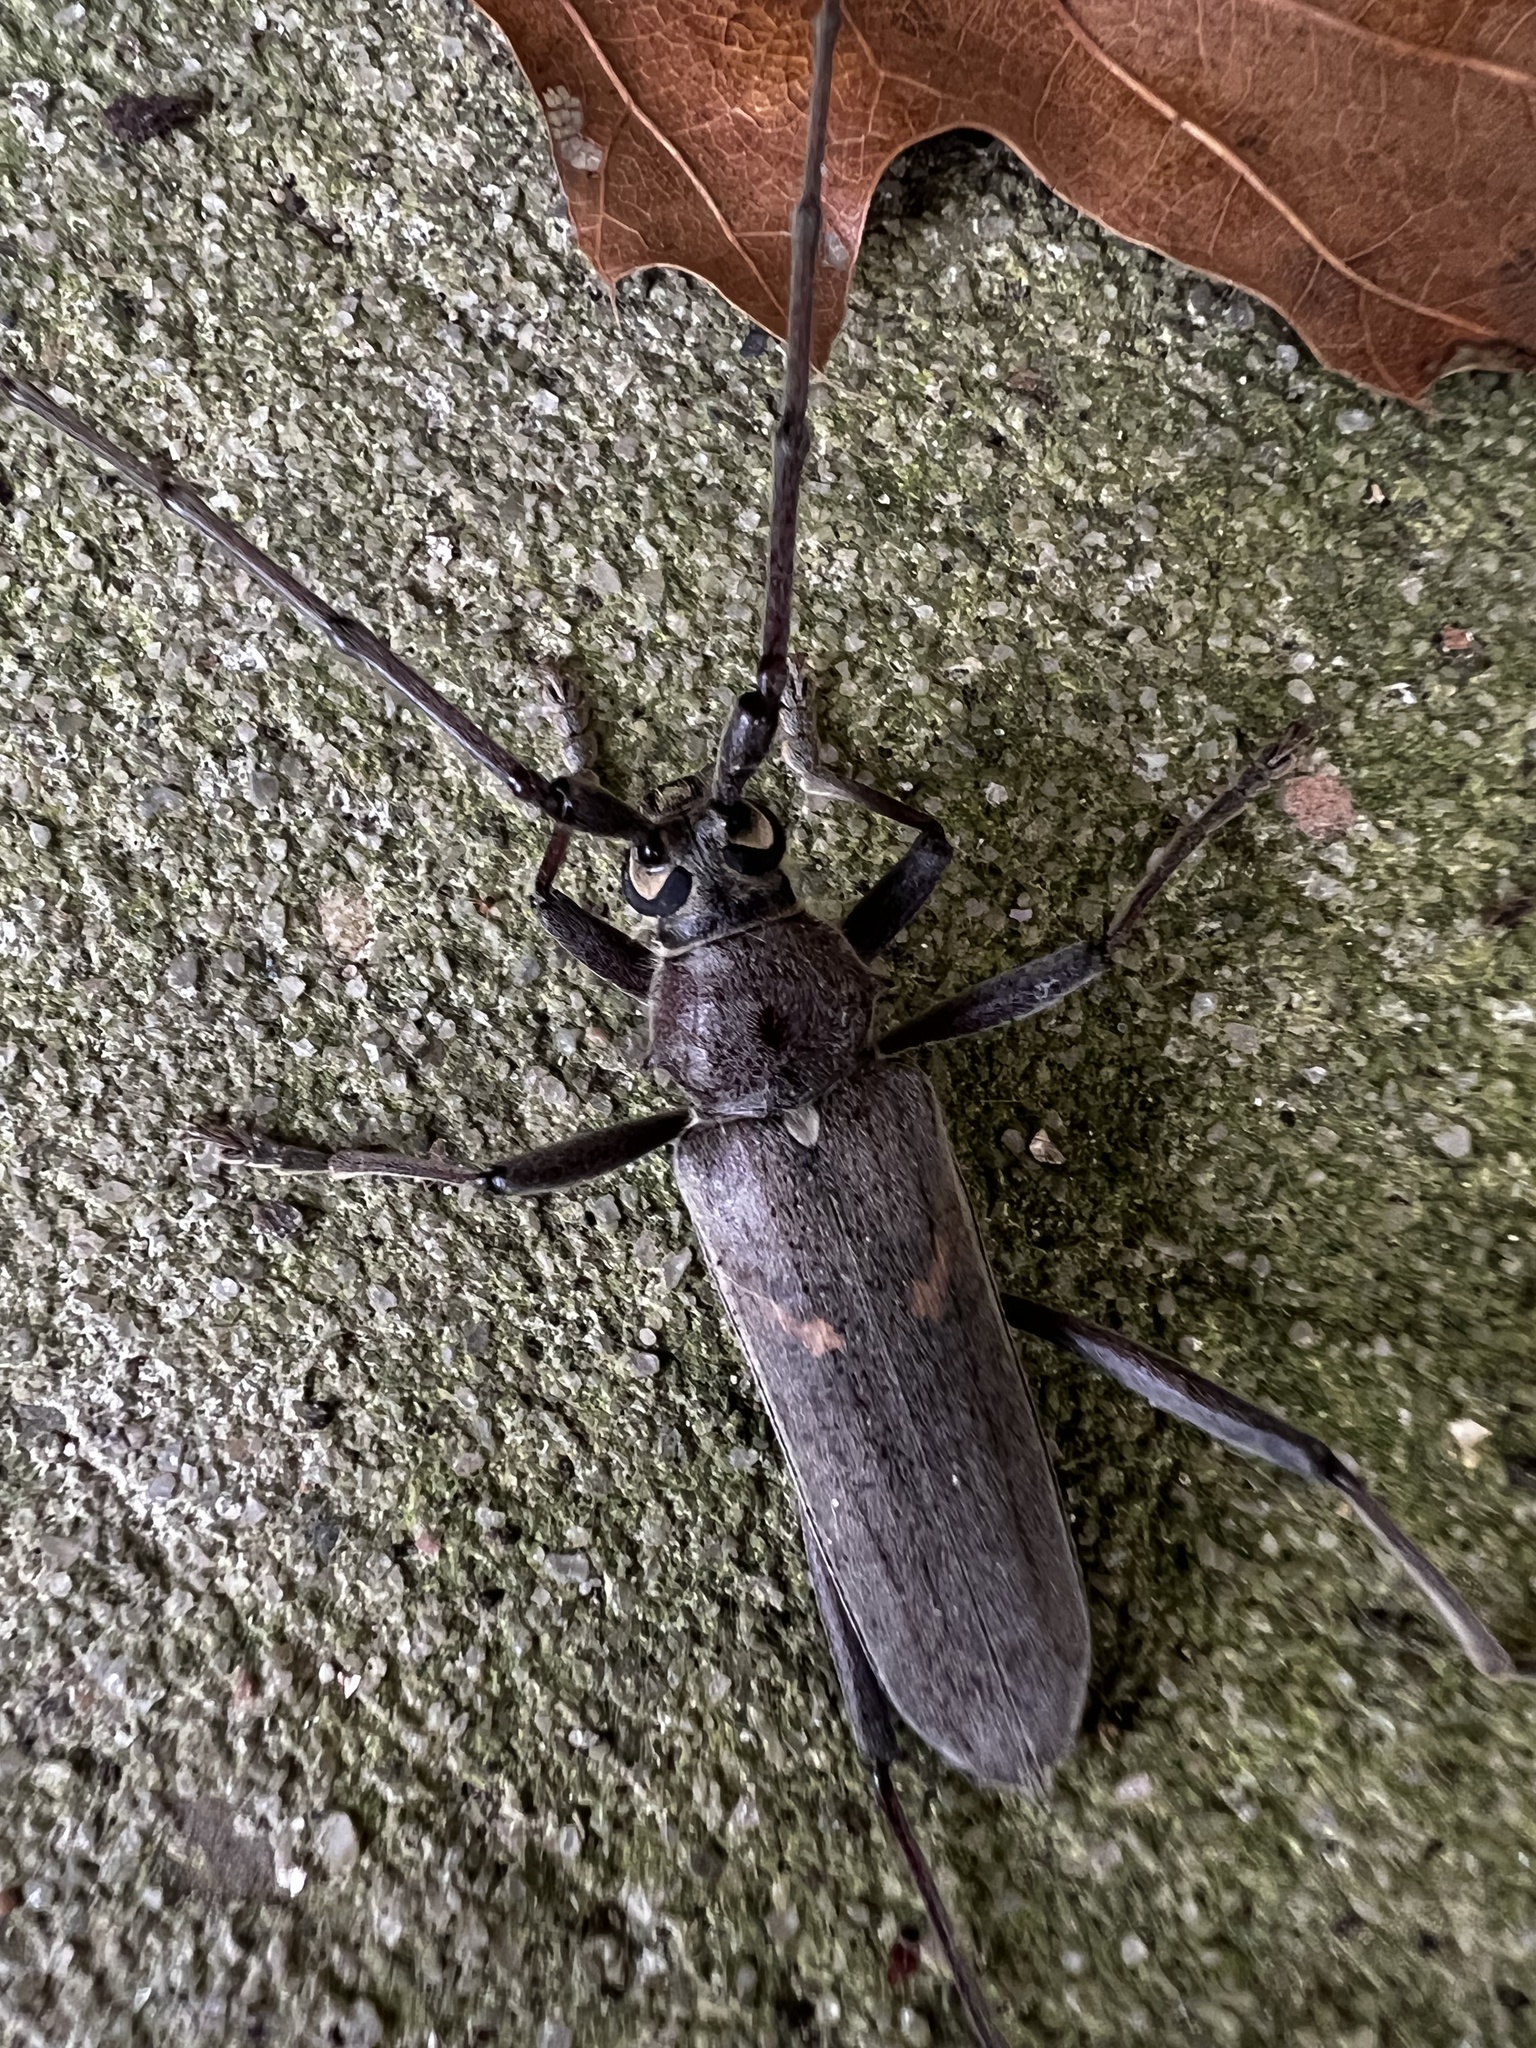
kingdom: Animalia
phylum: Arthropoda
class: Insecta
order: Coleoptera
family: Cerambycidae
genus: Knulliana
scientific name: Knulliana cincta
